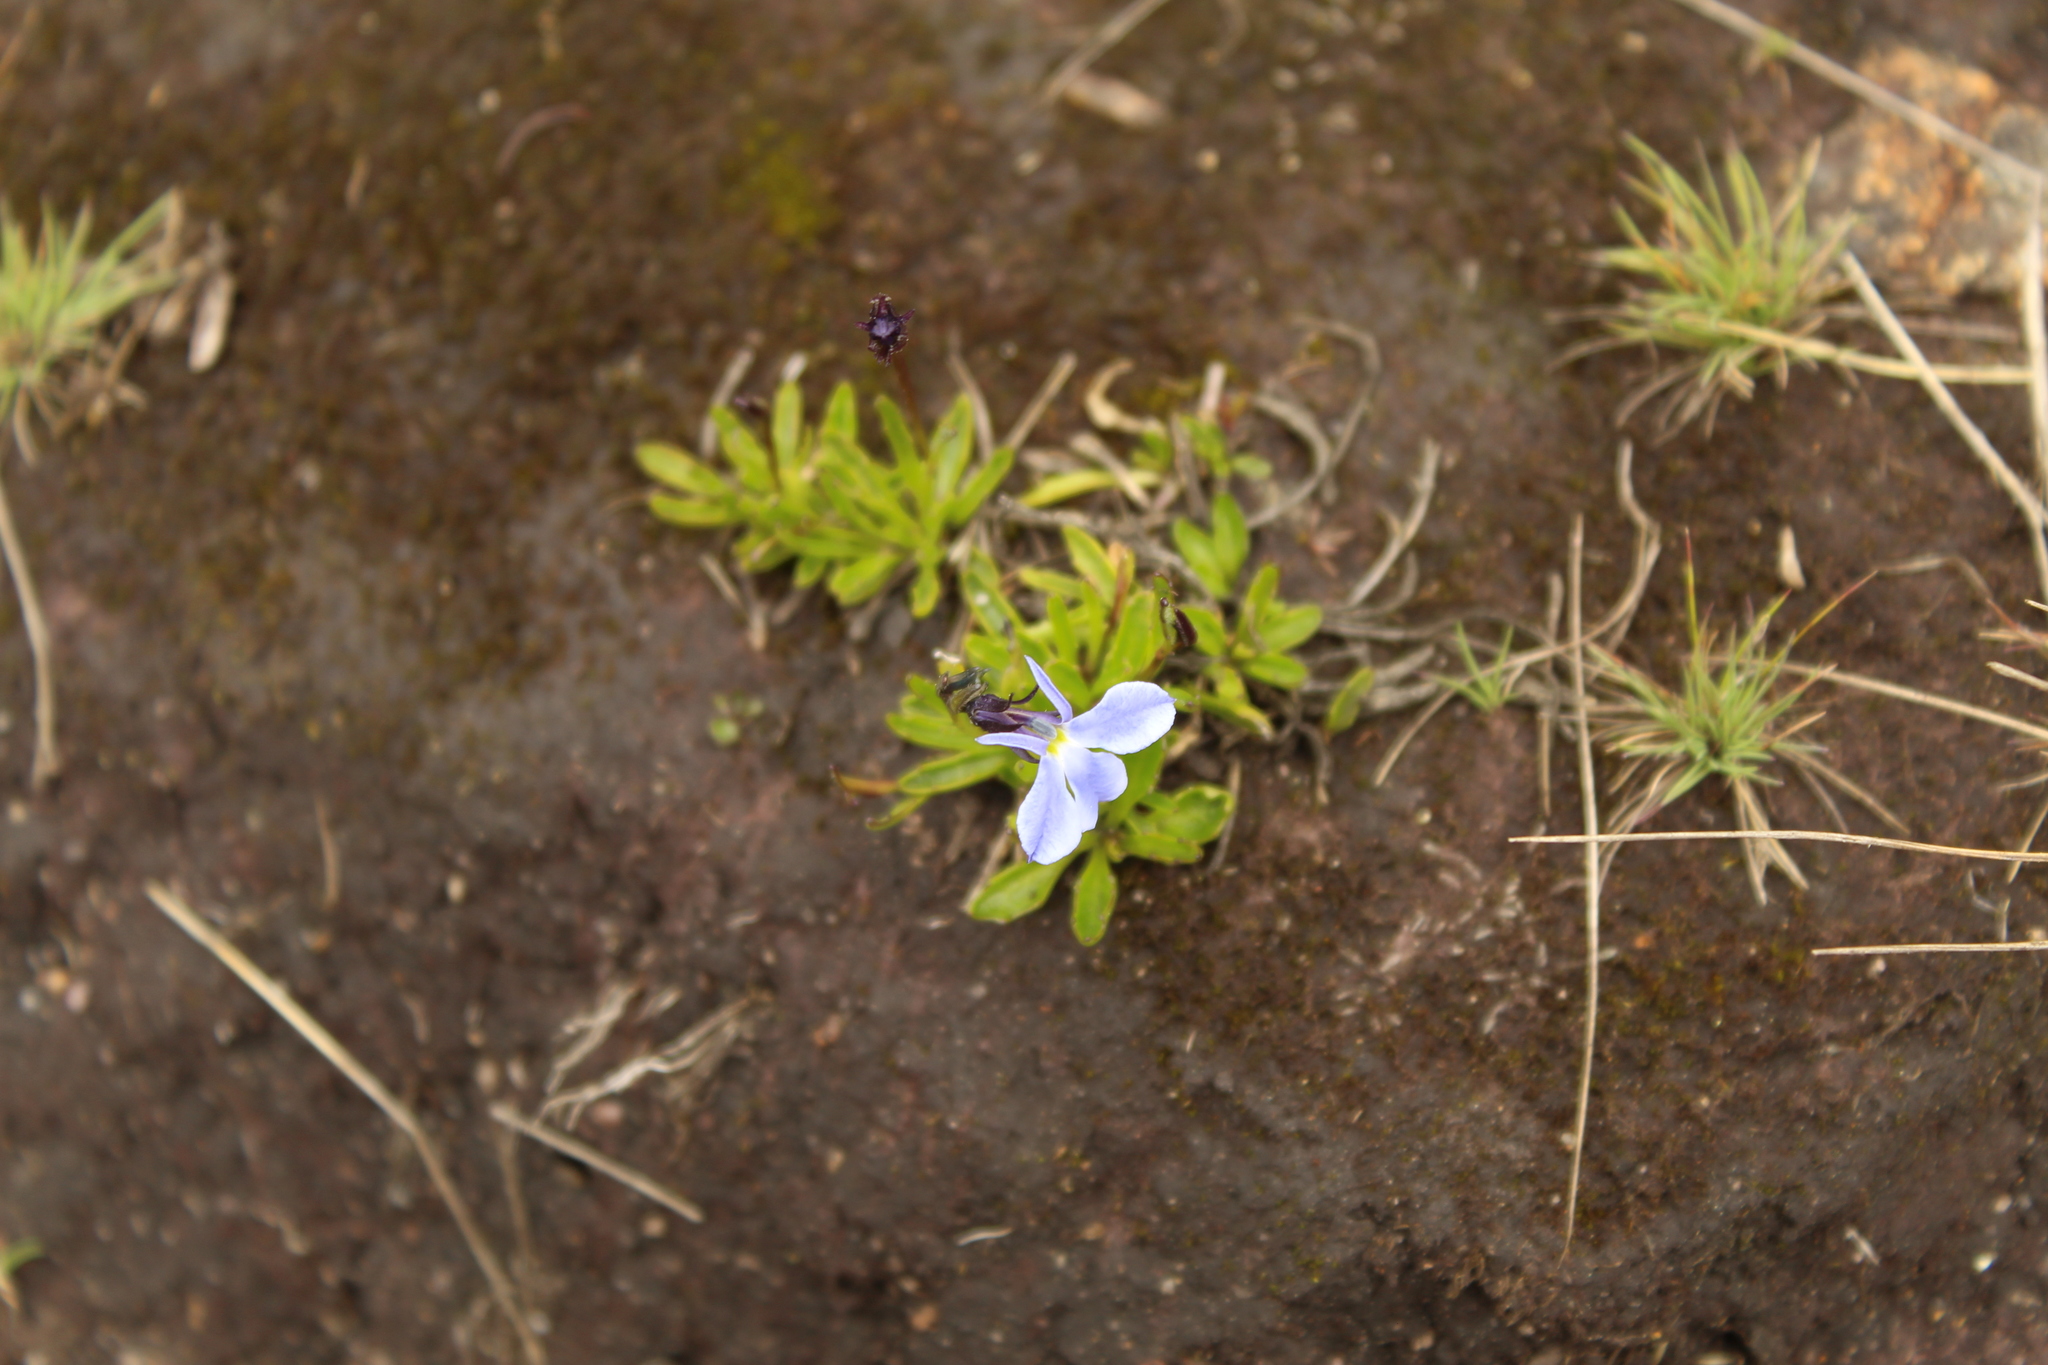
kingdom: Plantae
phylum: Tracheophyta
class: Magnoliopsida
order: Asterales
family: Campanulaceae
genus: Lobelia
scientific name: Lobelia tenera
